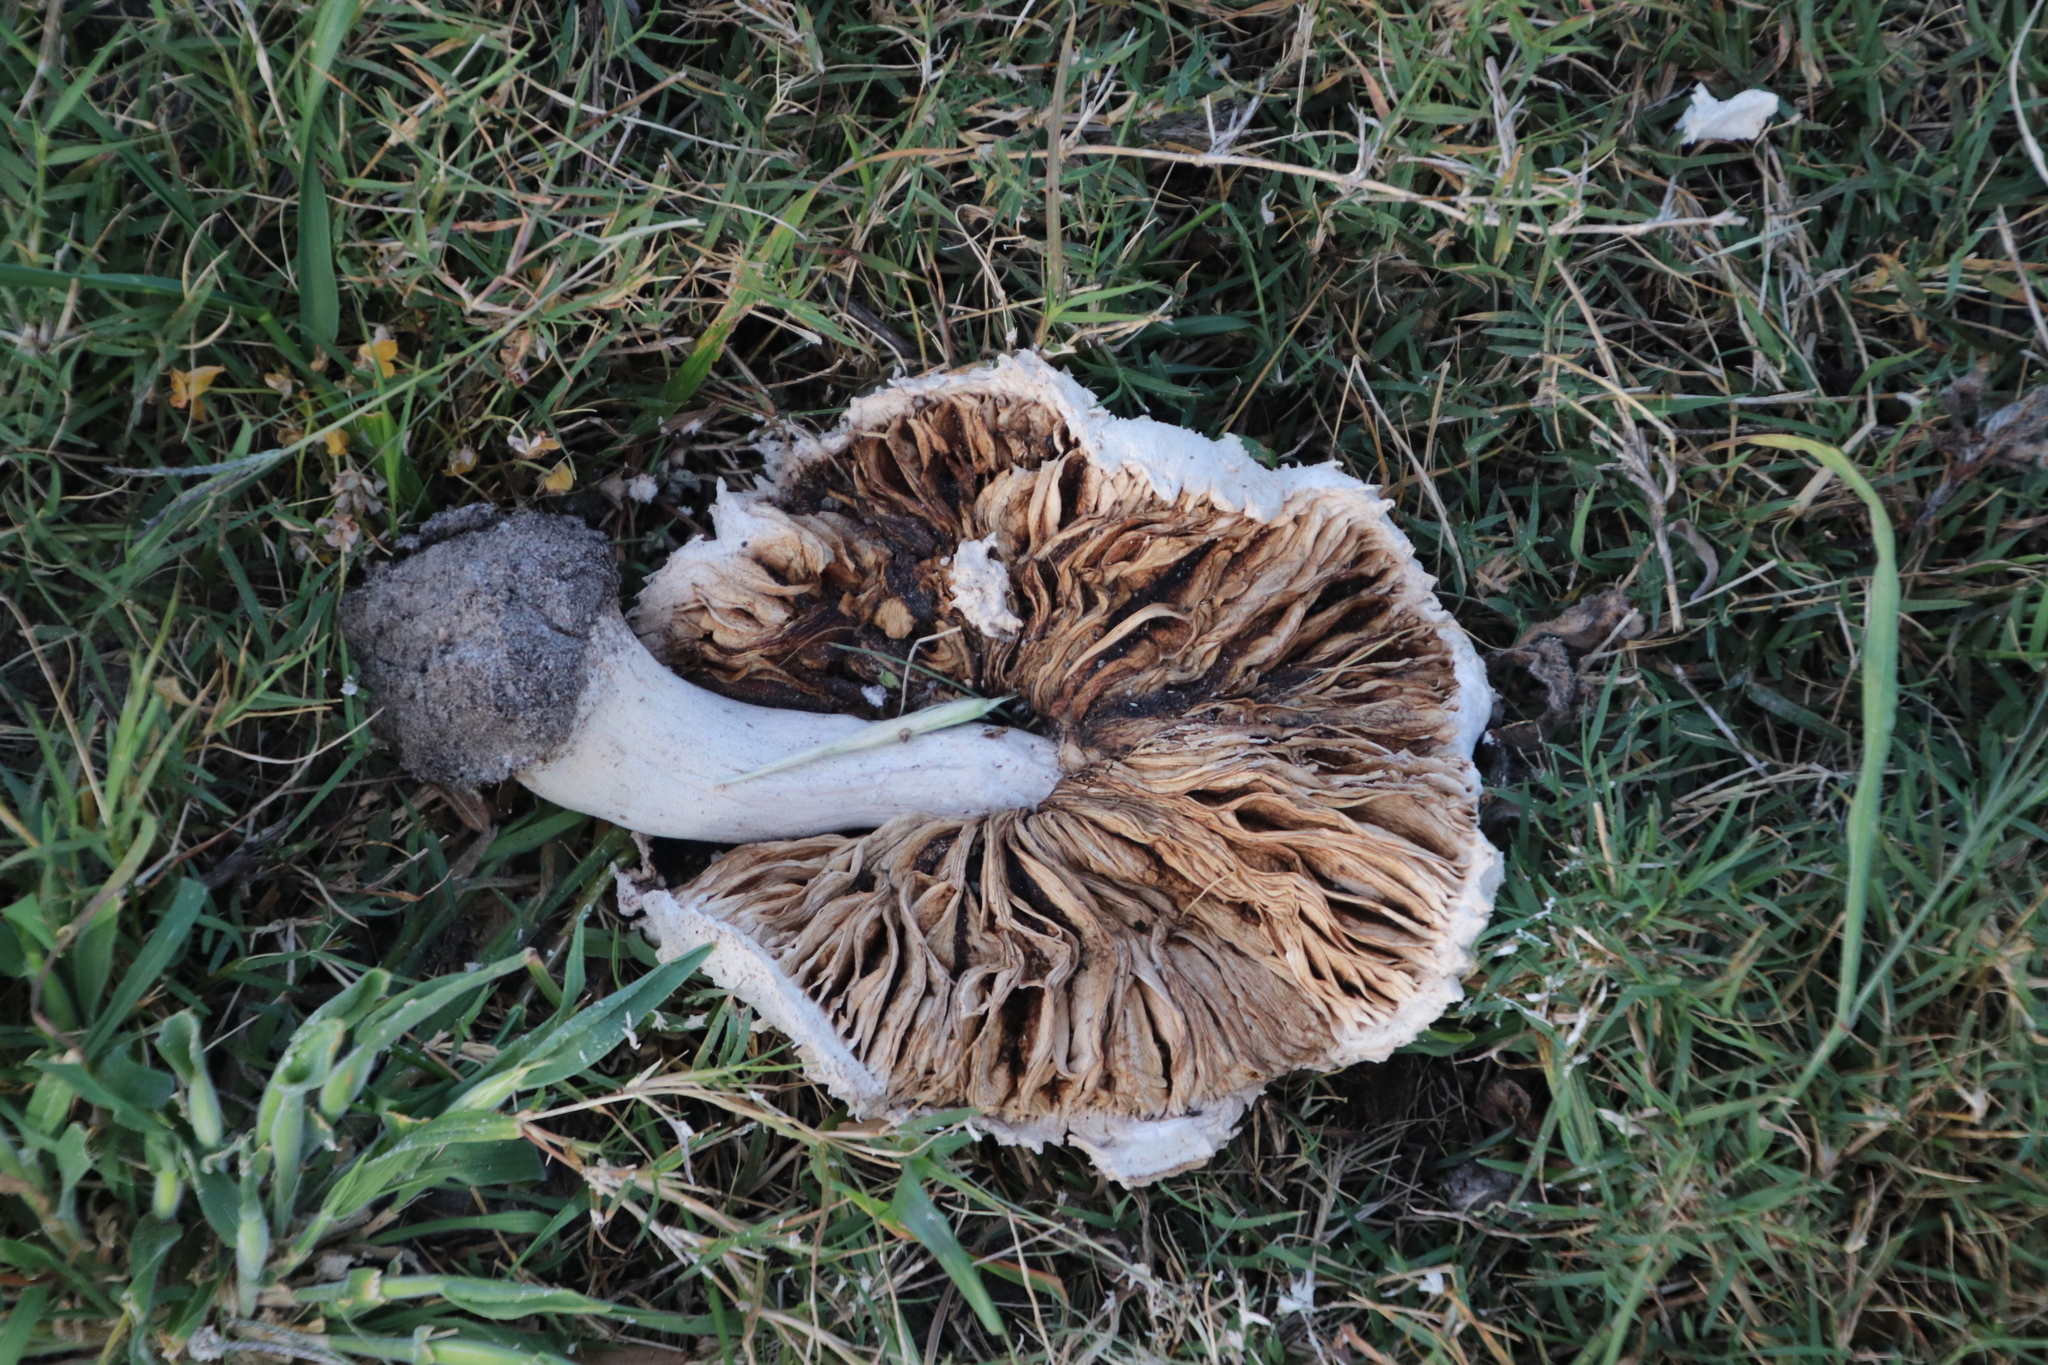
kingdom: Fungi
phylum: Basidiomycota
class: Agaricomycetes
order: Agaricales
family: Agaricaceae
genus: Macrolepiota
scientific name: Macrolepiota zeyheri
